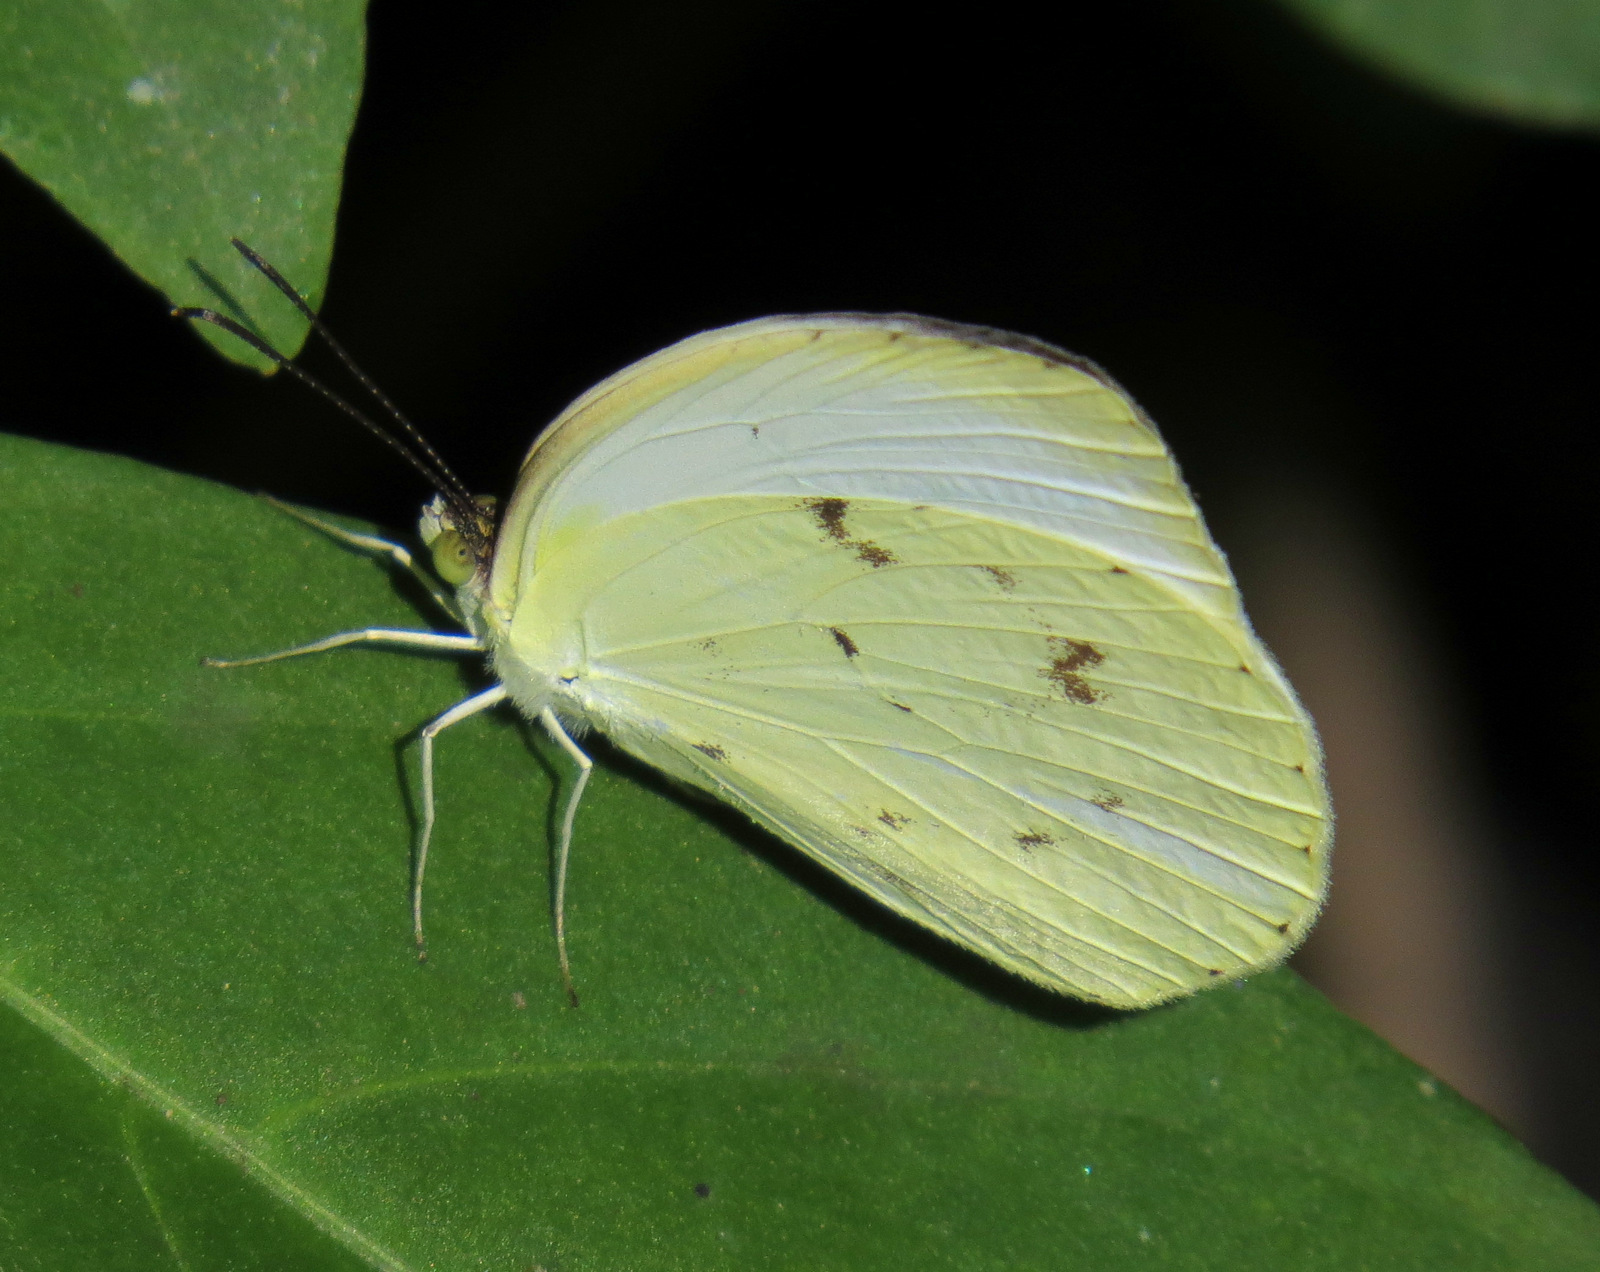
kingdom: Animalia
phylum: Arthropoda
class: Insecta
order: Lepidoptera
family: Pieridae
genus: Abaeis
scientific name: Abaeis albula
